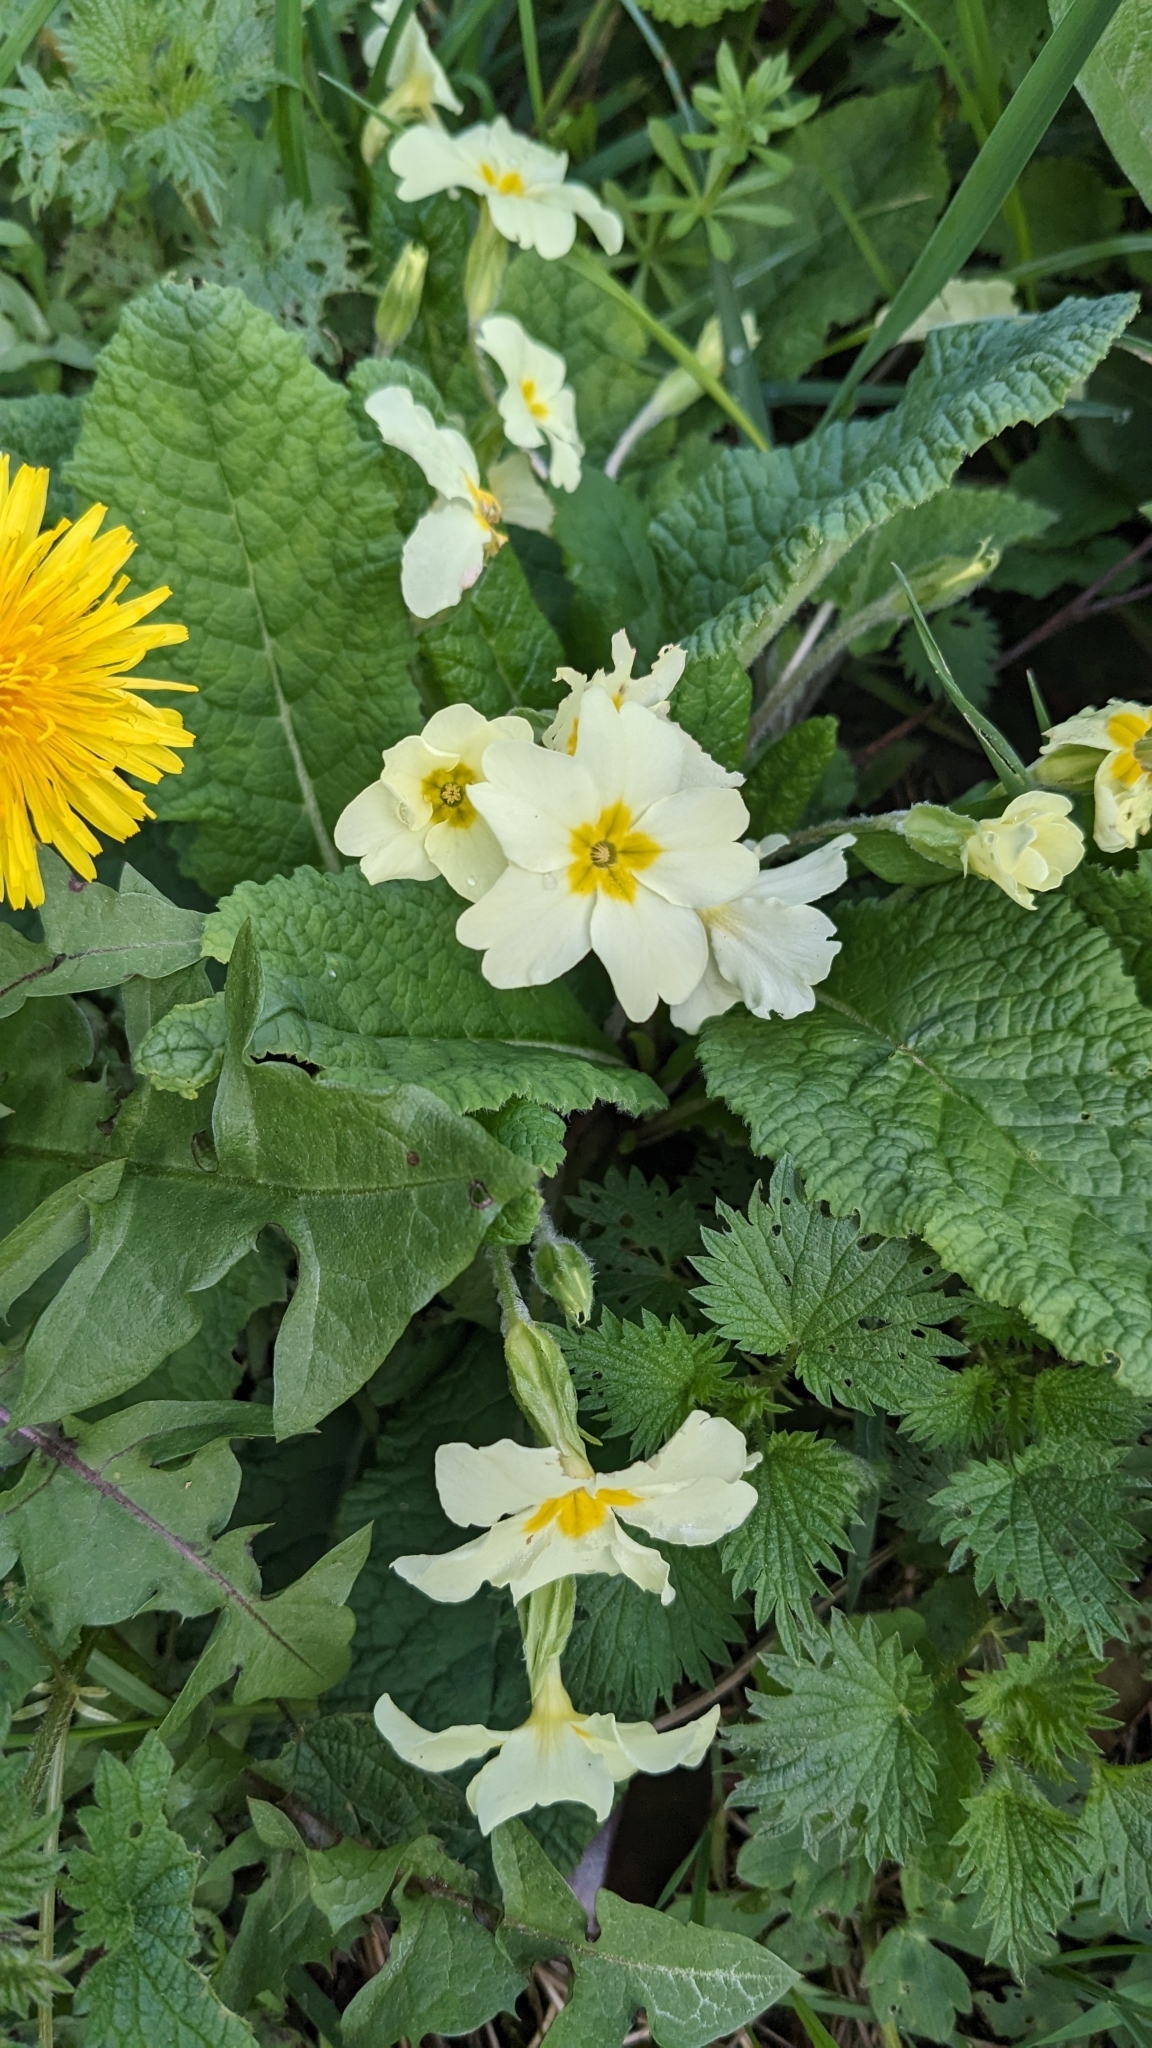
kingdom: Plantae
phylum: Tracheophyta
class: Magnoliopsida
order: Ericales
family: Primulaceae
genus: Primula
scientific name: Primula vulgaris
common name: Primrose
